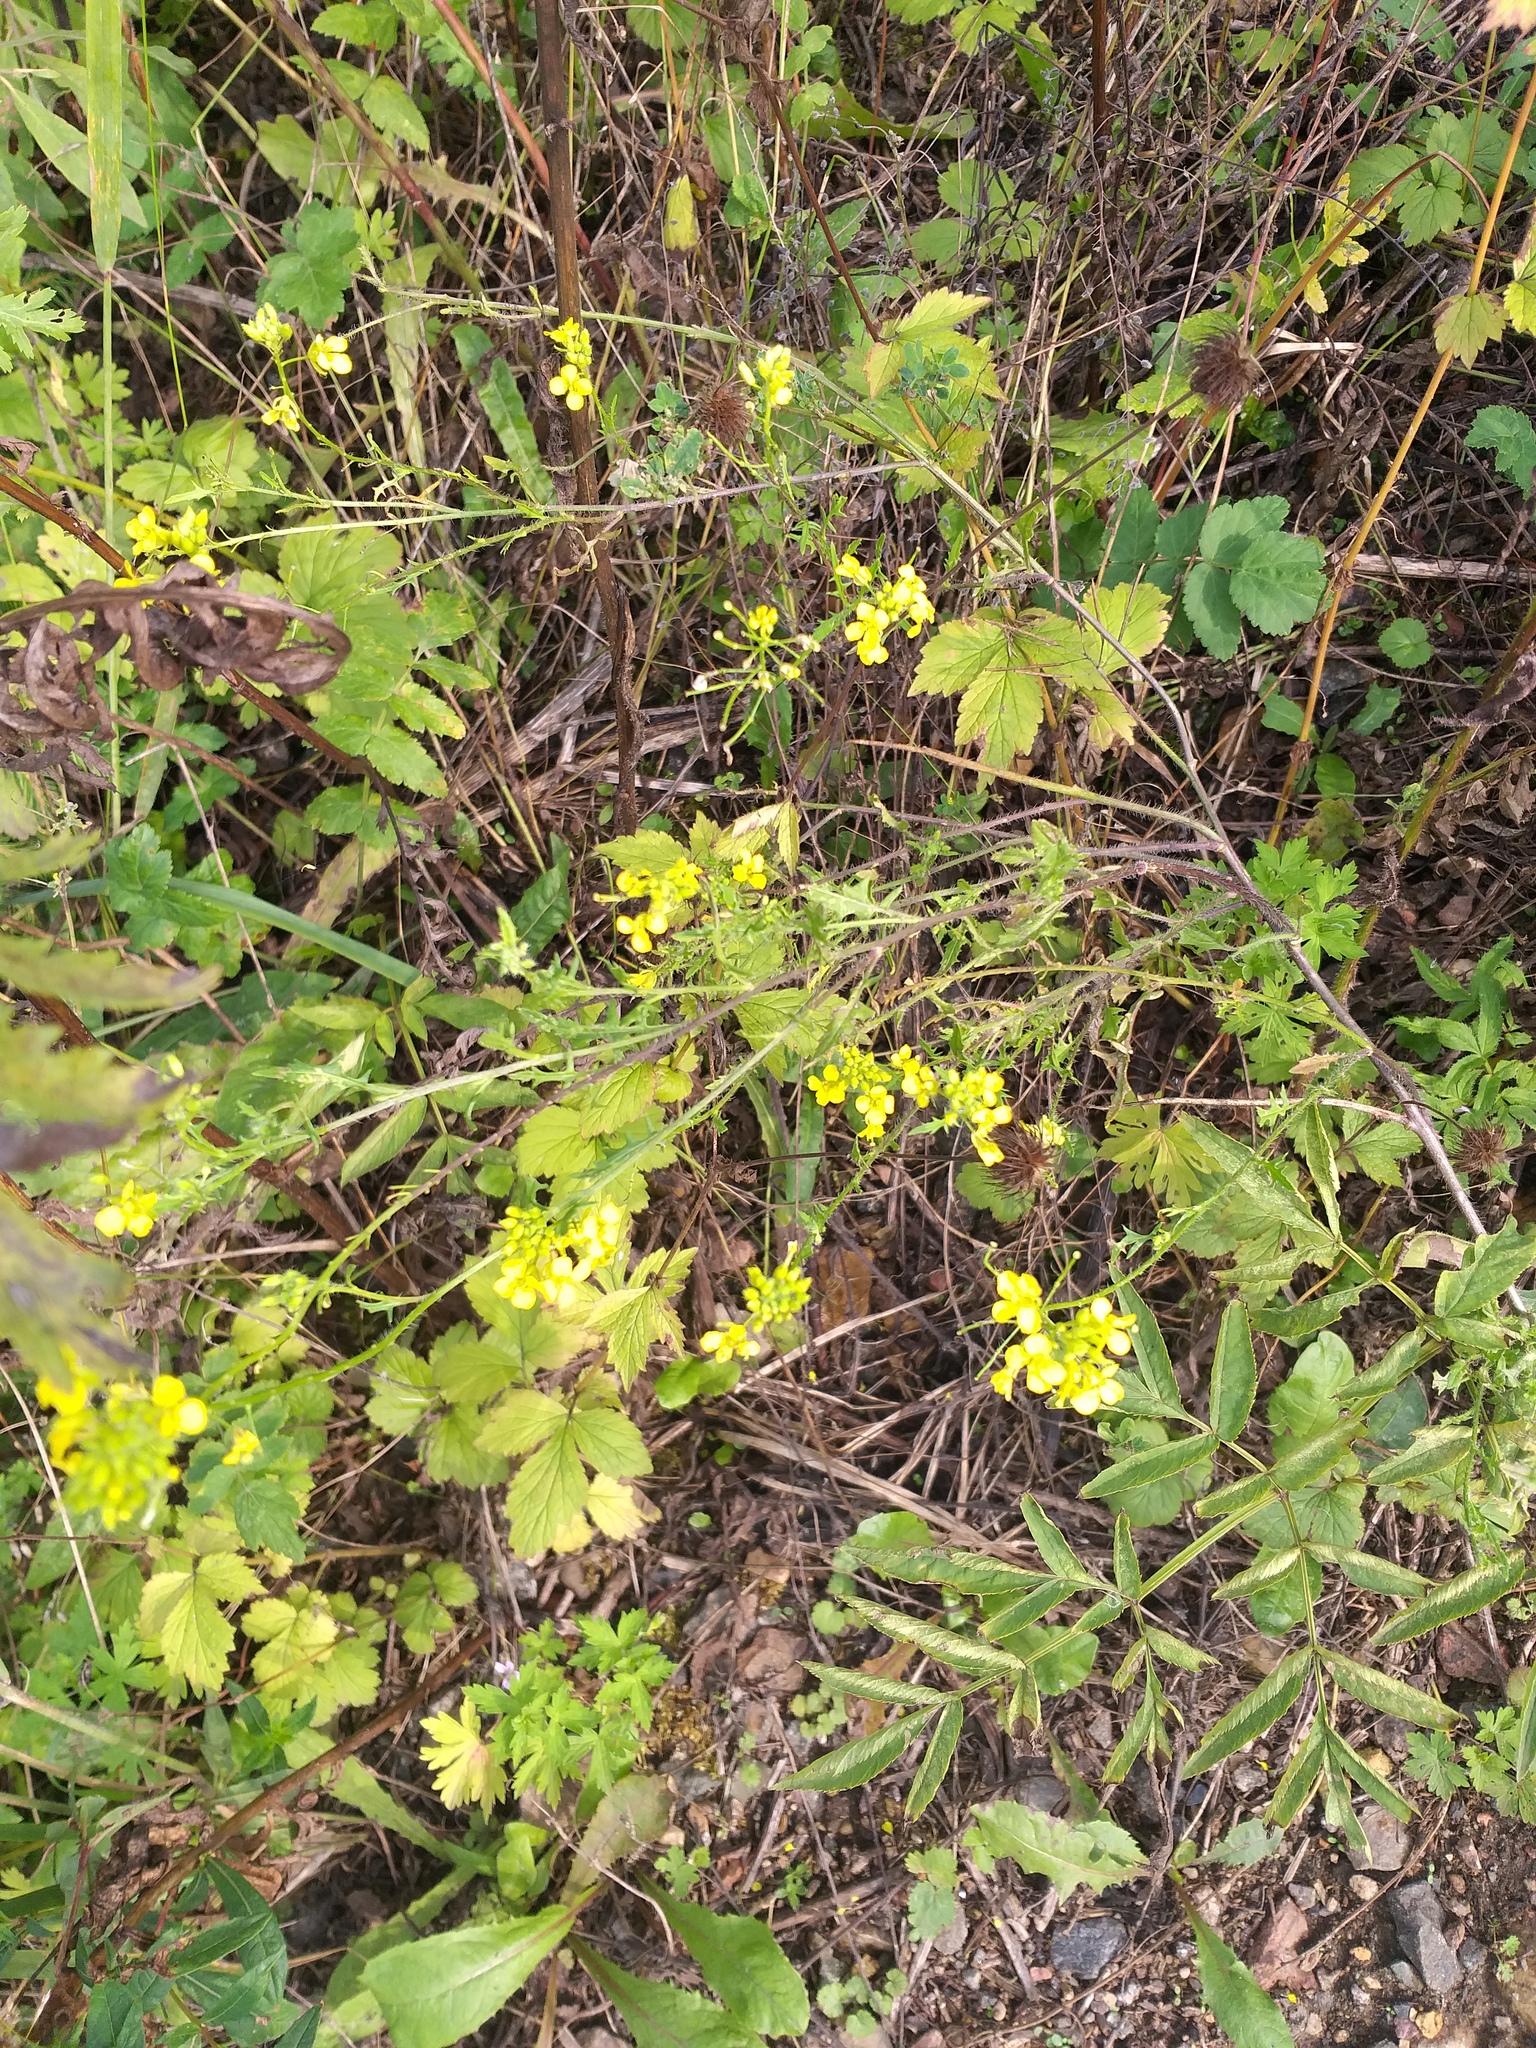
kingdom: Plantae
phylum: Tracheophyta
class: Magnoliopsida
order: Brassicales
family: Brassicaceae
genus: Sisymbrium
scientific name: Sisymbrium loeselii
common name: False london-rocket
